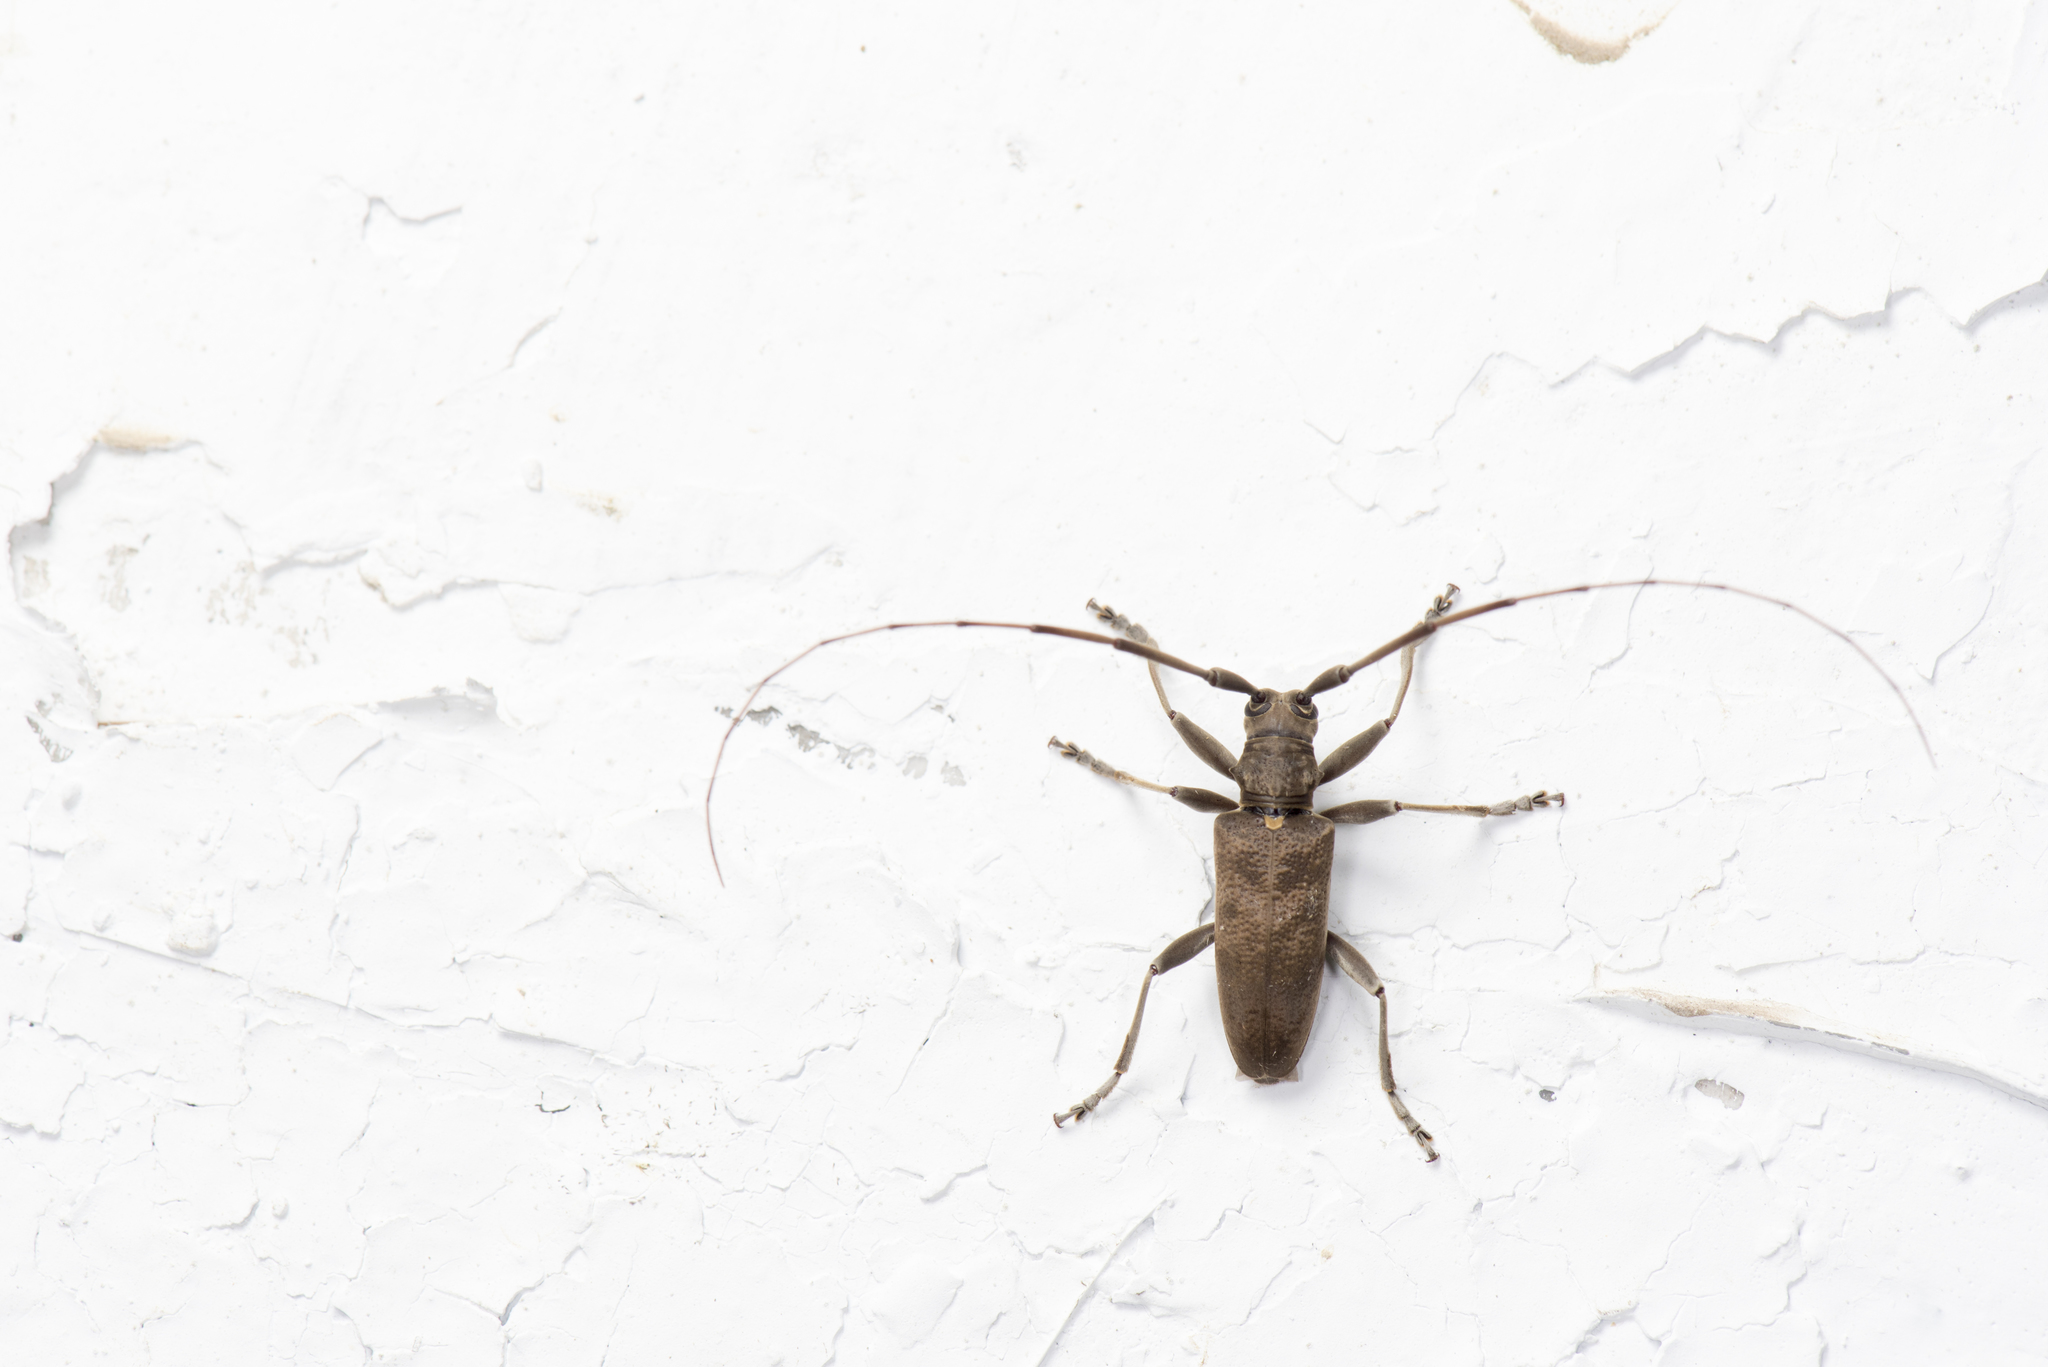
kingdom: Animalia
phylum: Arthropoda
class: Insecta
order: Coleoptera
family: Cerambycidae
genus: Acalolepta
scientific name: Acalolepta formosana
